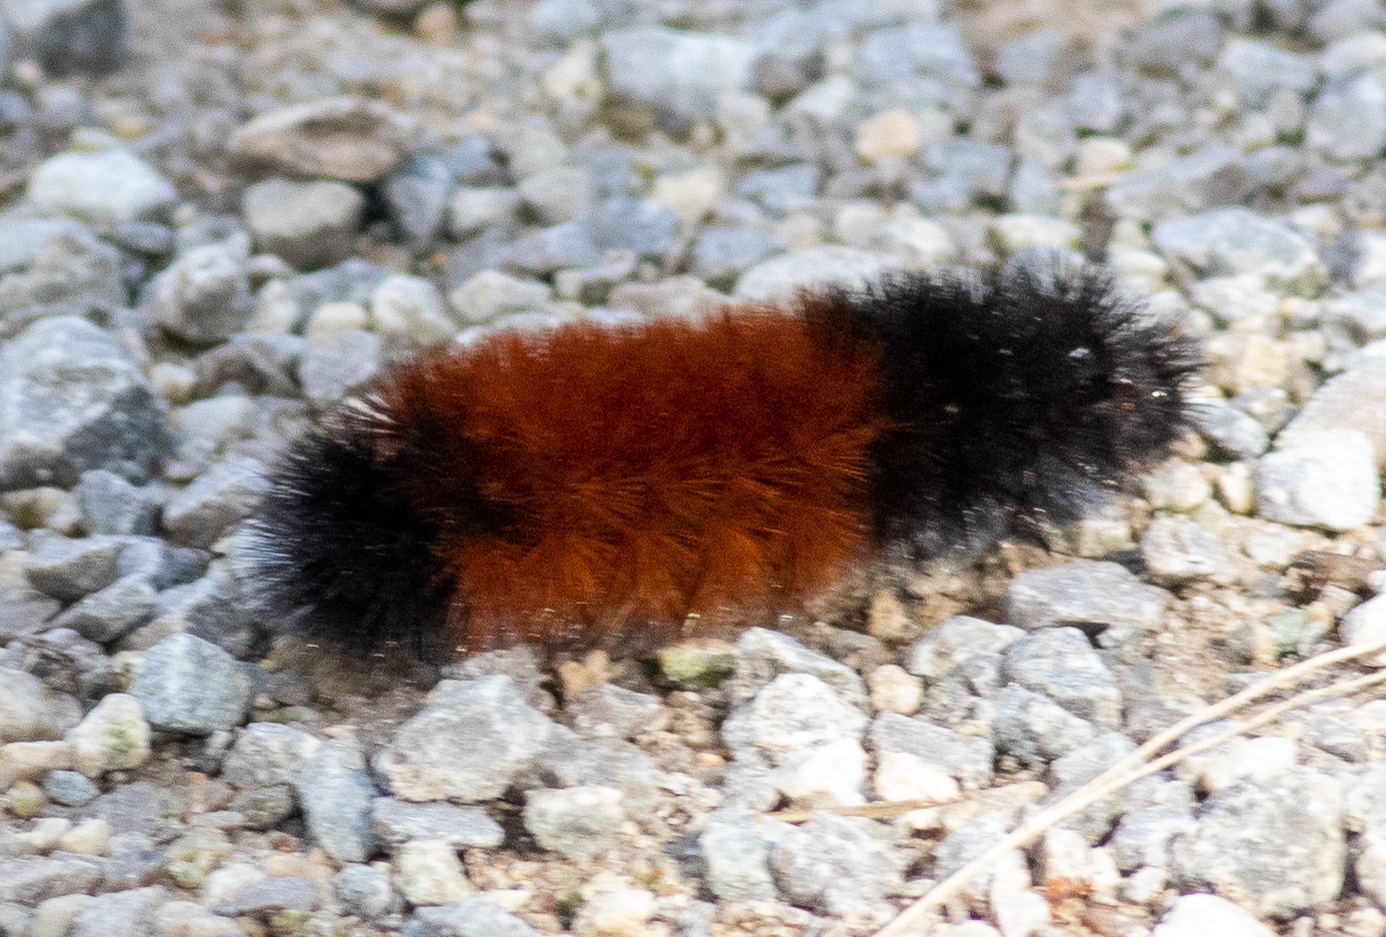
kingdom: Animalia
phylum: Arthropoda
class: Insecta
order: Lepidoptera
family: Erebidae
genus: Pyrrharctia
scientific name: Pyrrharctia isabella
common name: Isabella tiger moth
